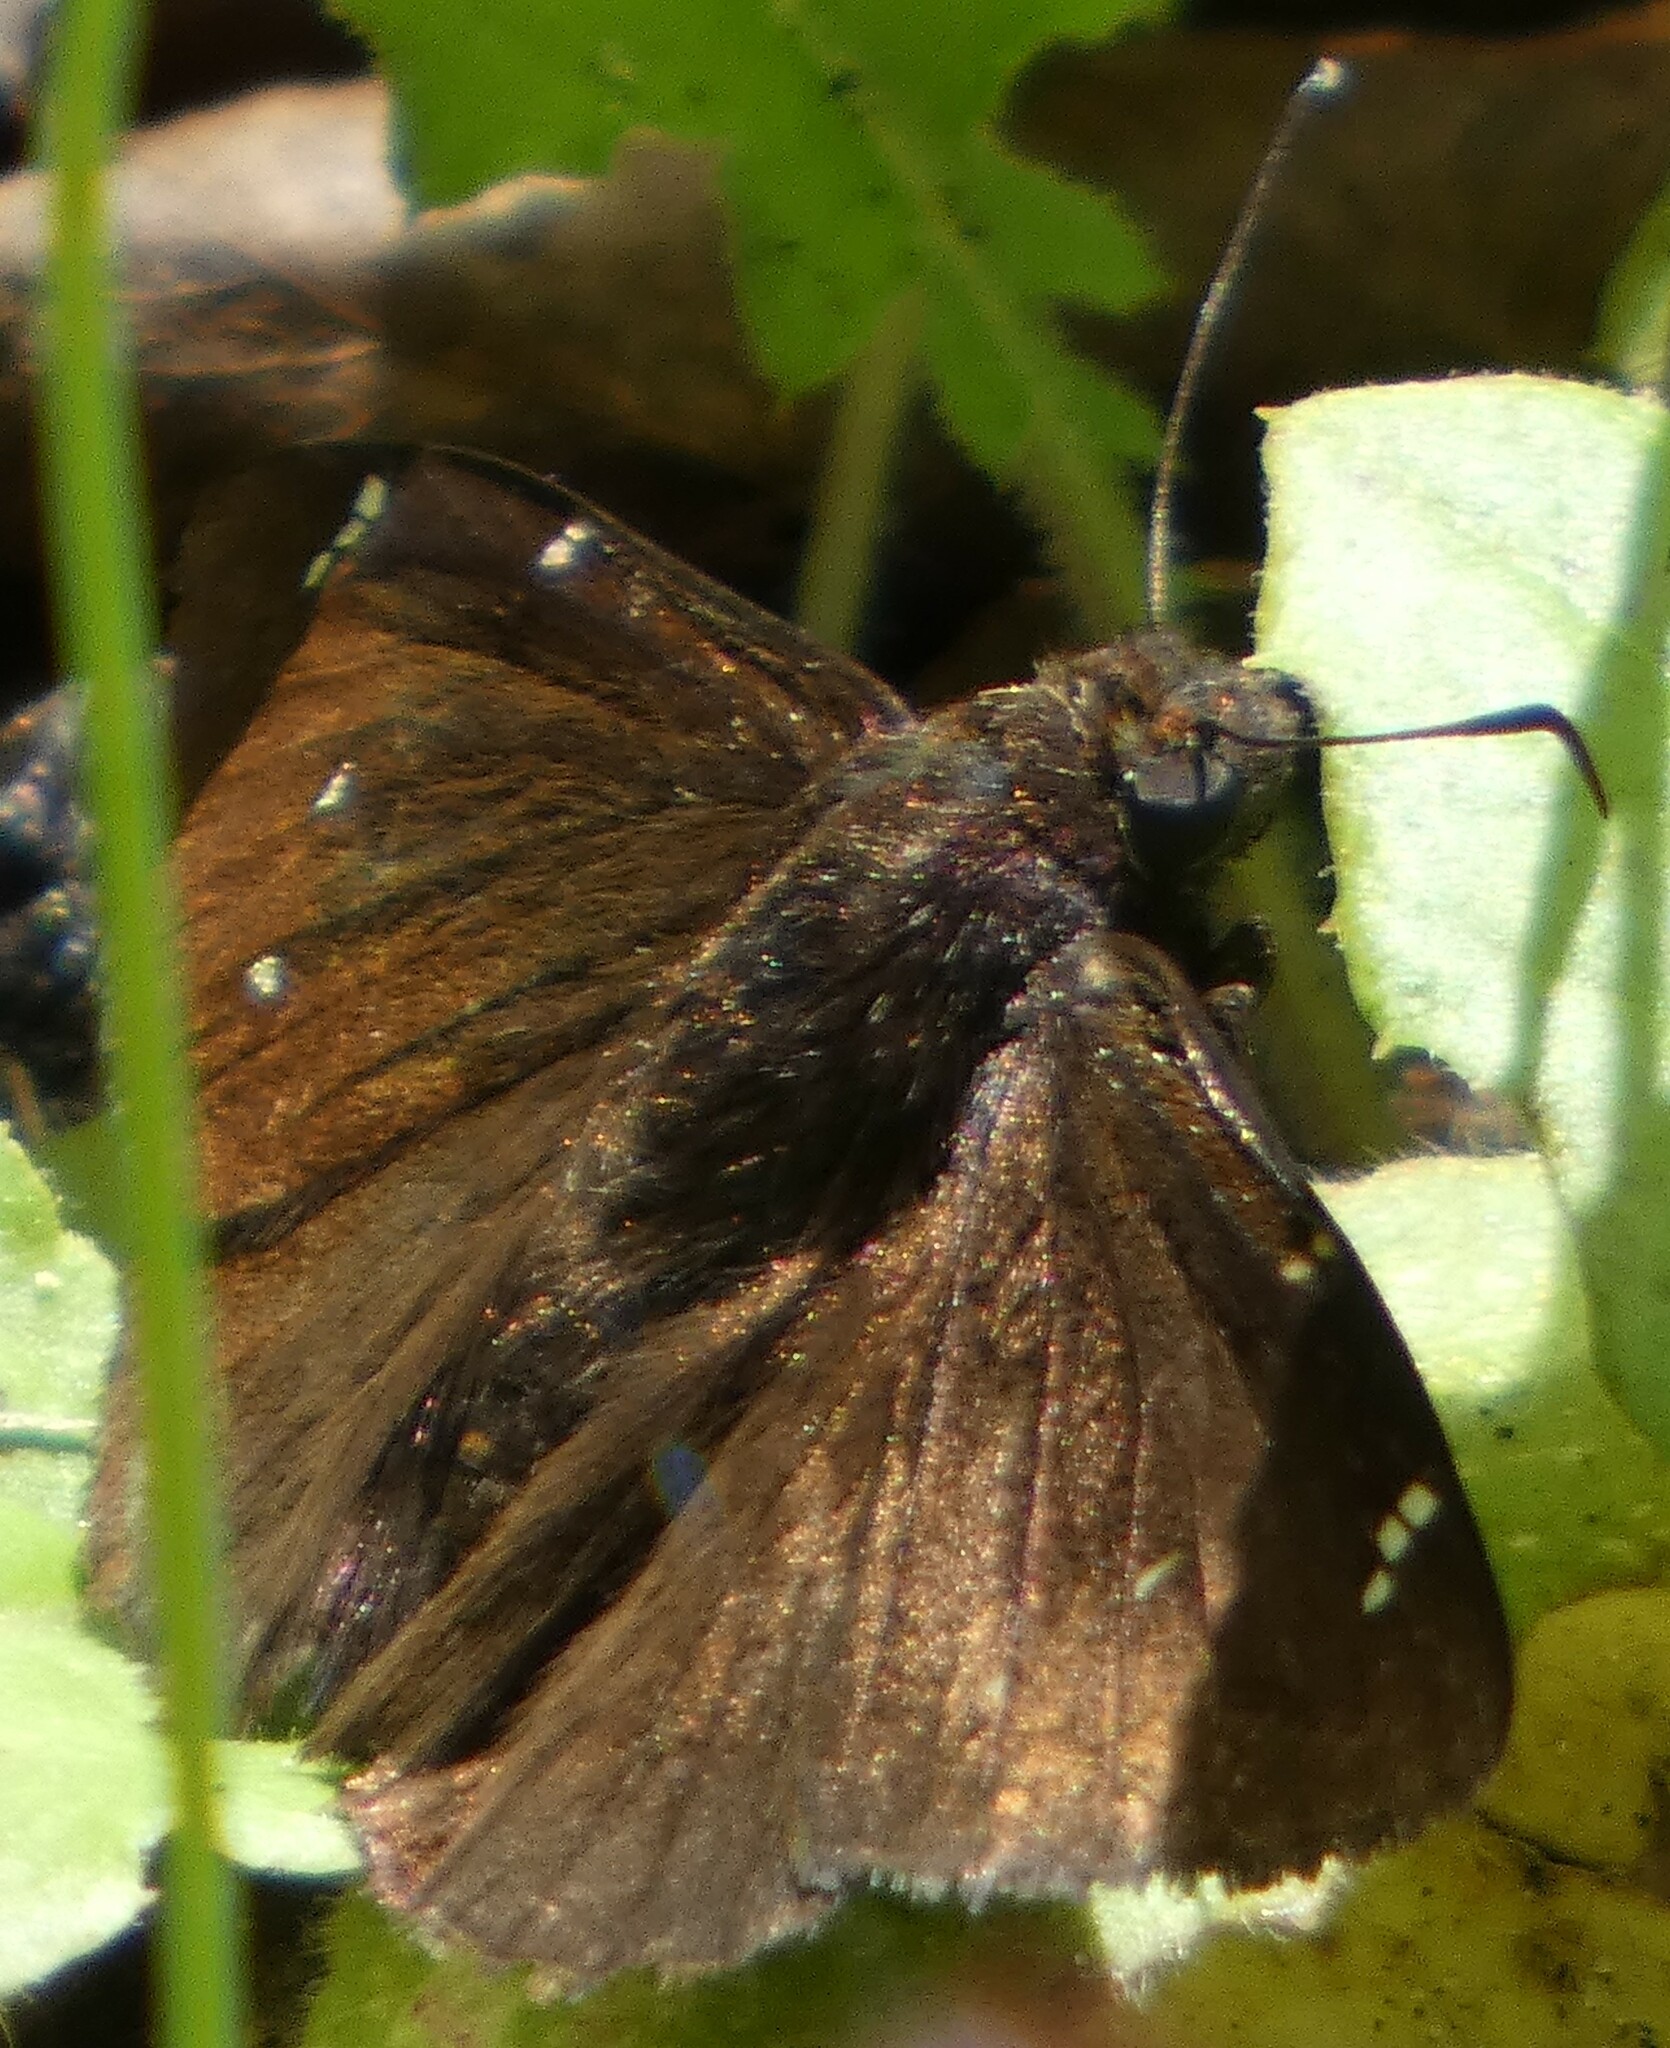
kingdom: Animalia
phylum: Arthropoda
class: Insecta
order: Lepidoptera
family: Hesperiidae
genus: Thorybes
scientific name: Thorybes pylades
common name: Northern cloudywing
